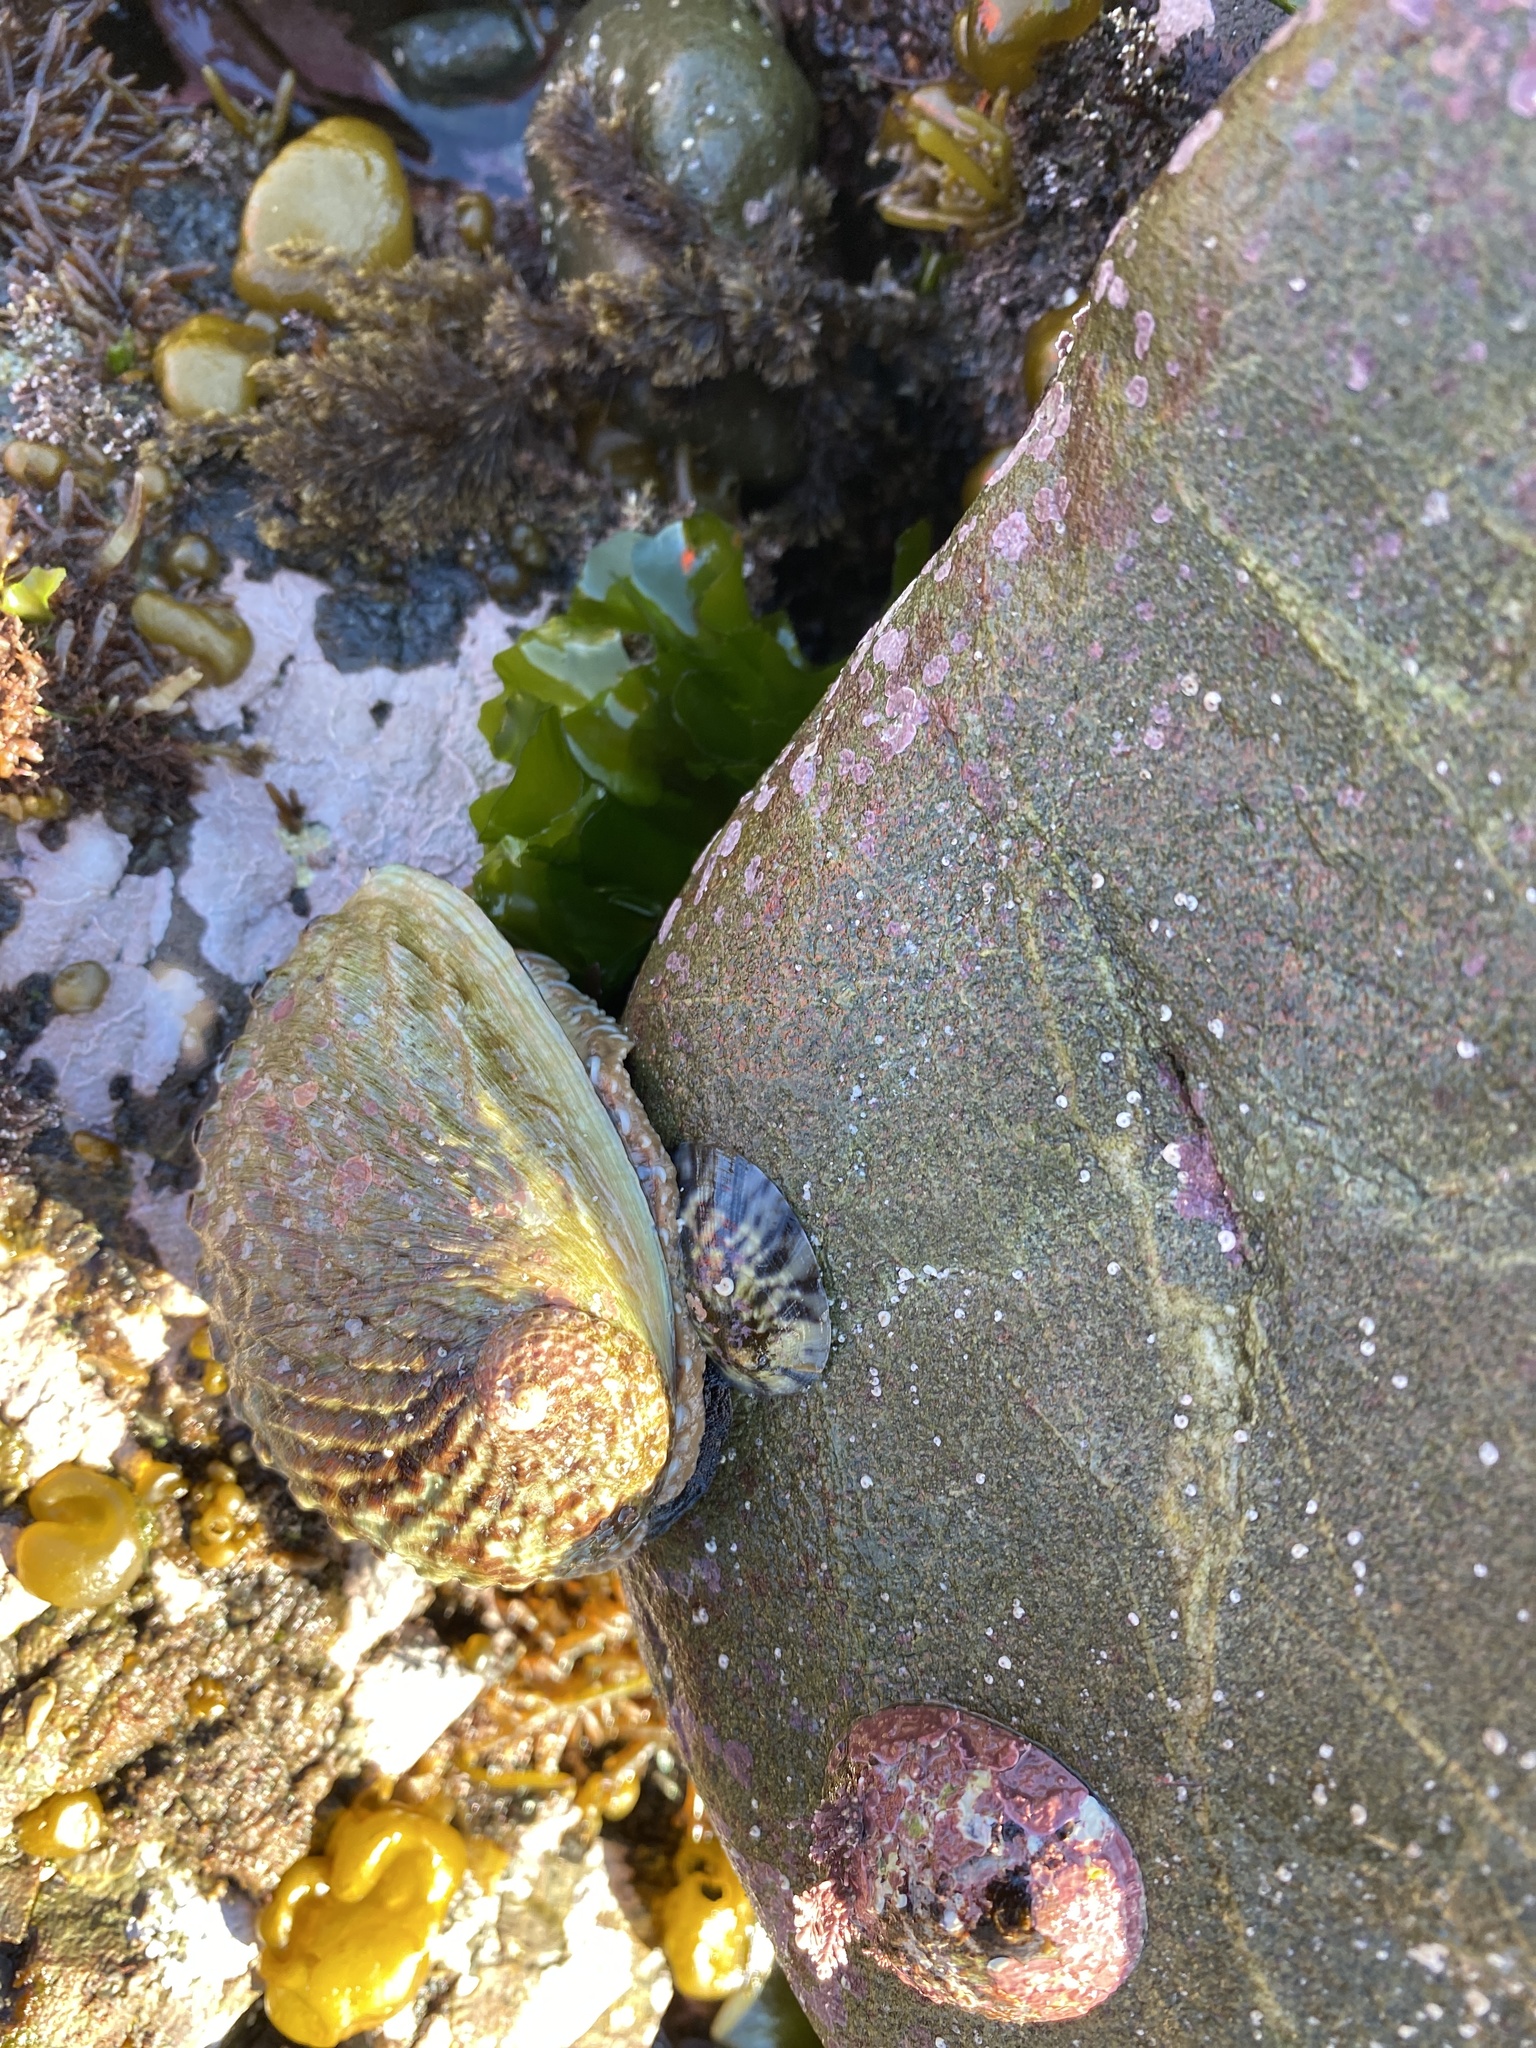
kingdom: Animalia
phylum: Mollusca
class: Gastropoda
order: Lepetellida
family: Haliotidae
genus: Haliotis
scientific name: Haliotis australis
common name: Silver abalone
